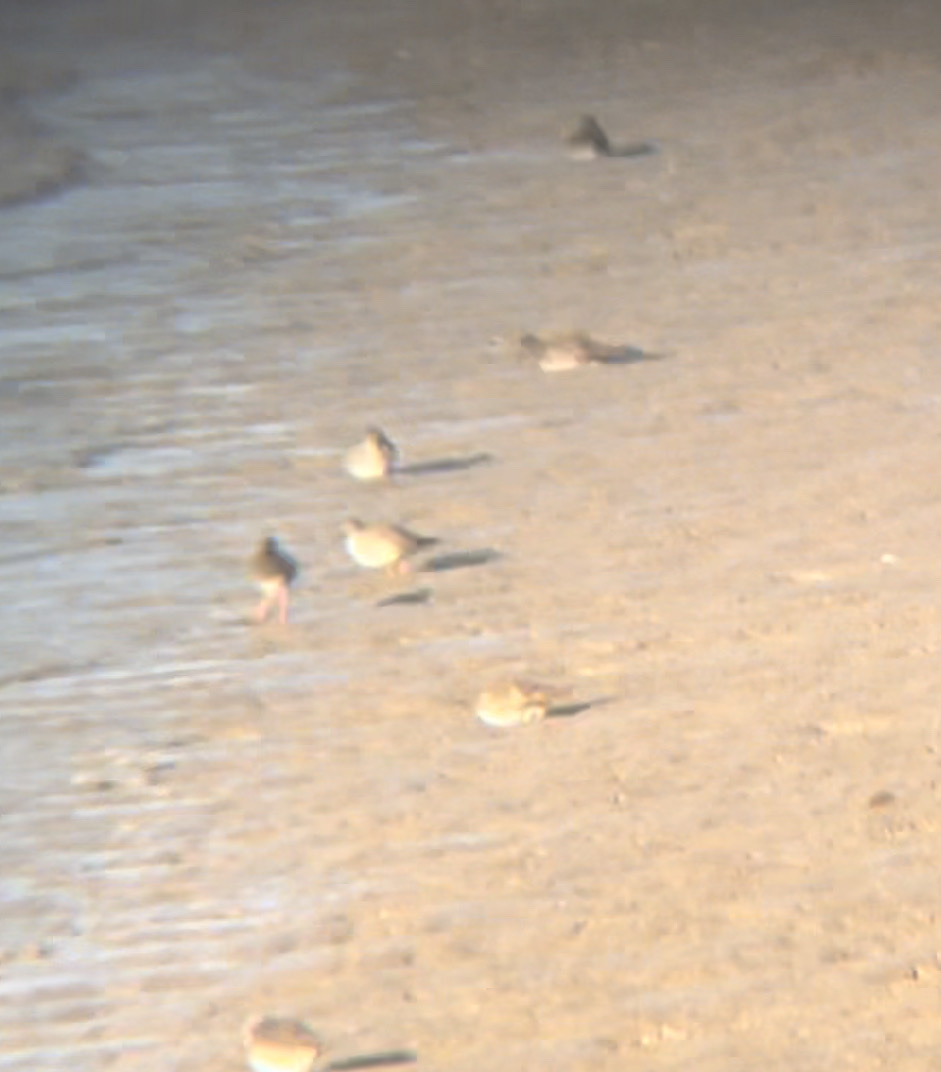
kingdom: Animalia
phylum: Chordata
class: Aves
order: Charadriiformes
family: Scolopacidae
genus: Tringa
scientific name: Tringa totanus
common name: Common redshank
